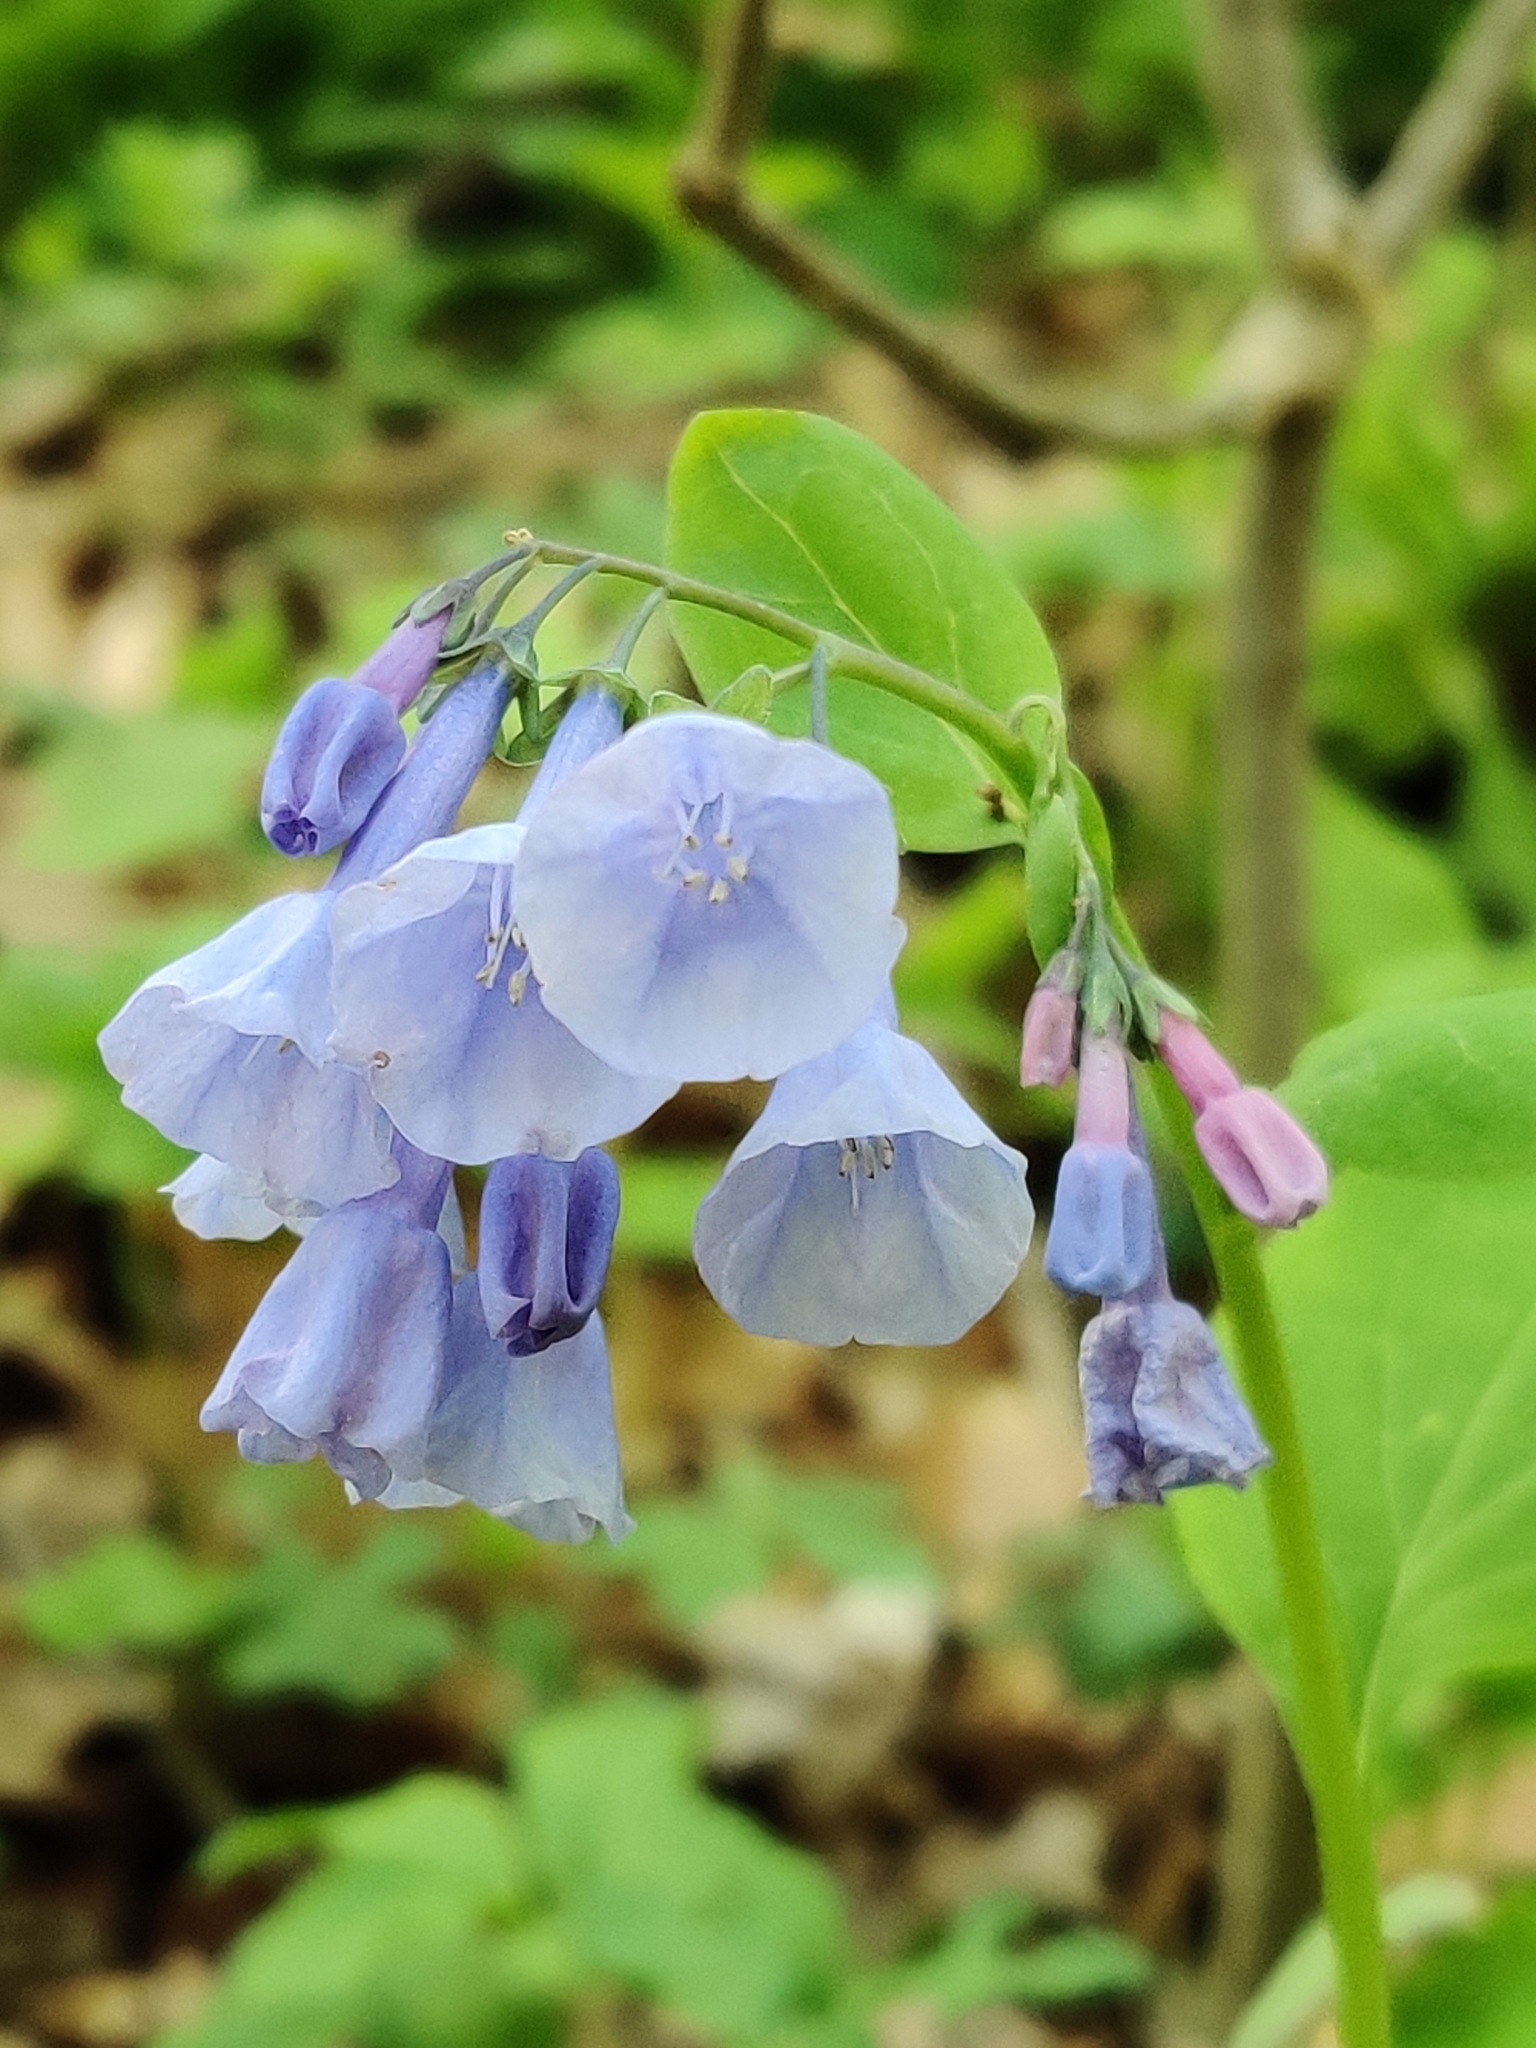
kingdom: Plantae
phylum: Tracheophyta
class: Magnoliopsida
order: Boraginales
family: Boraginaceae
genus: Mertensia
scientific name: Mertensia virginica
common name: Virginia bluebells
